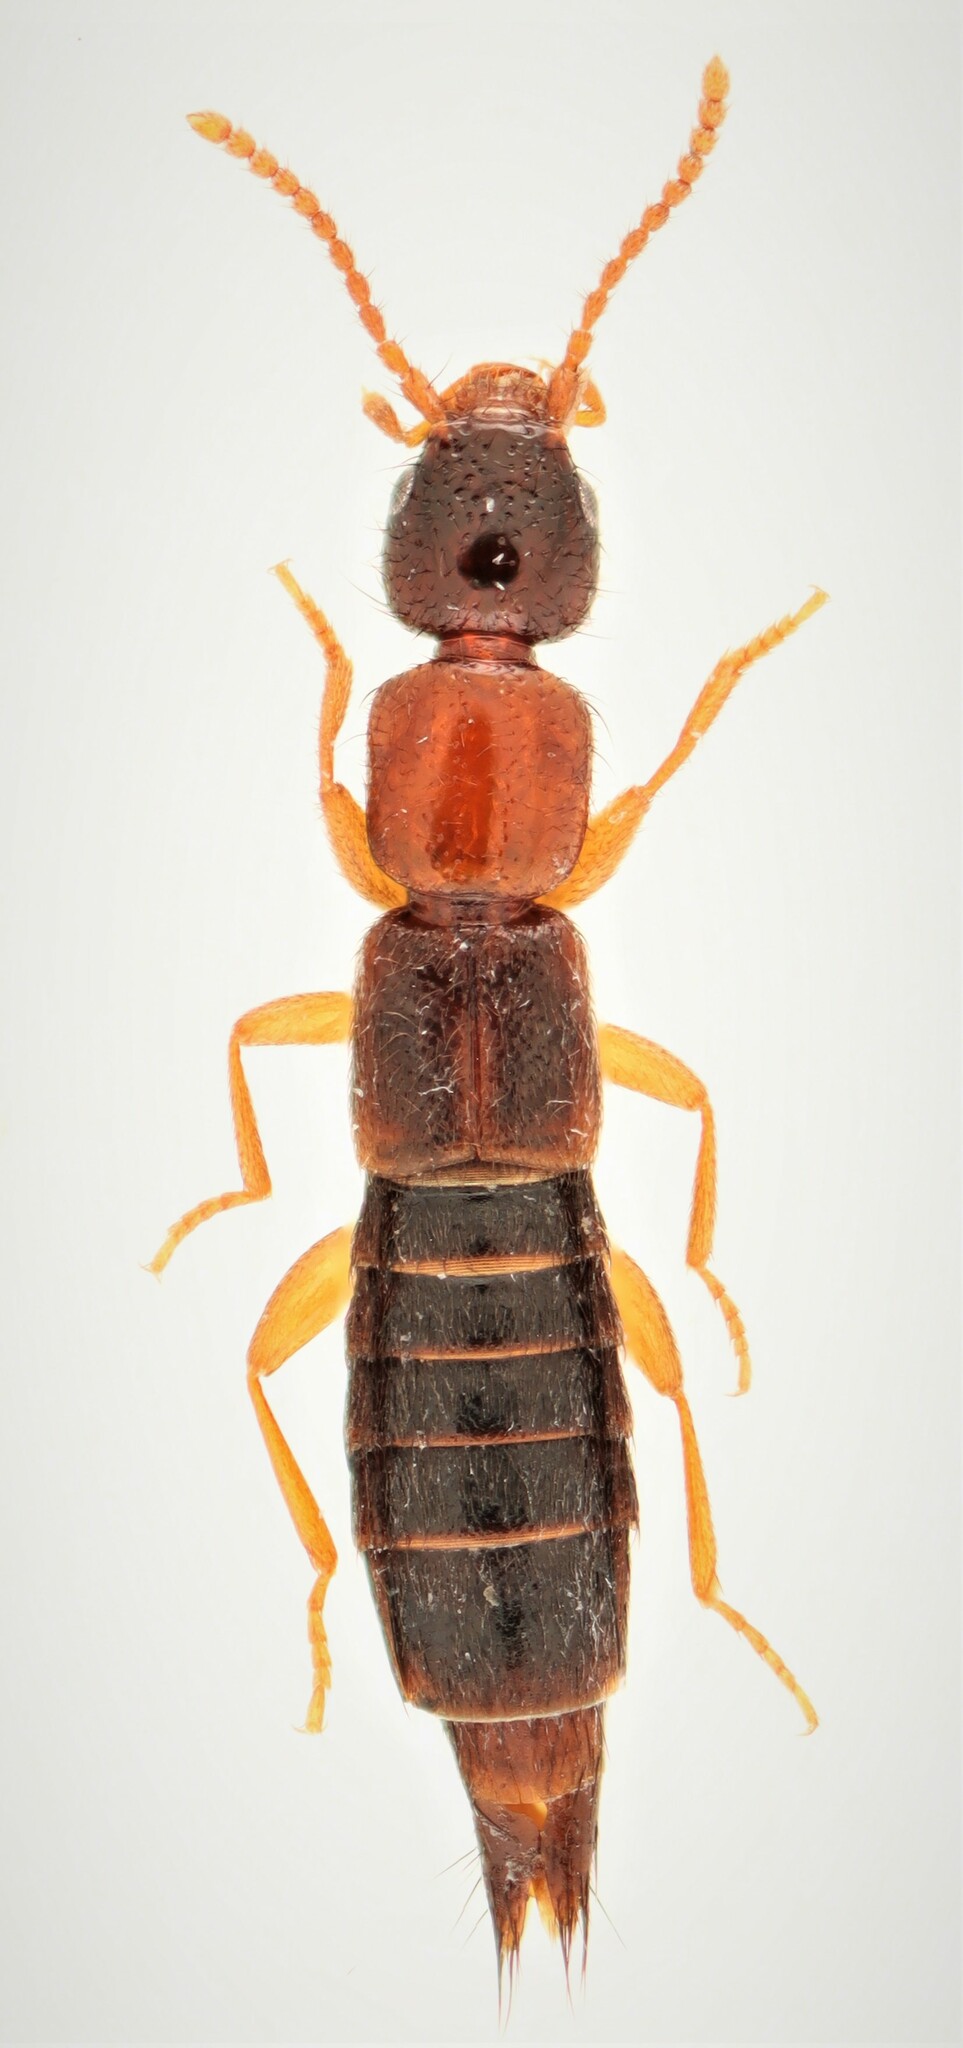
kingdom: Animalia
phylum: Arthropoda
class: Insecta
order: Coleoptera
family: Staphylinidae
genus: Sunius
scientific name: Sunius melanocephalus
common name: Rove beetle
